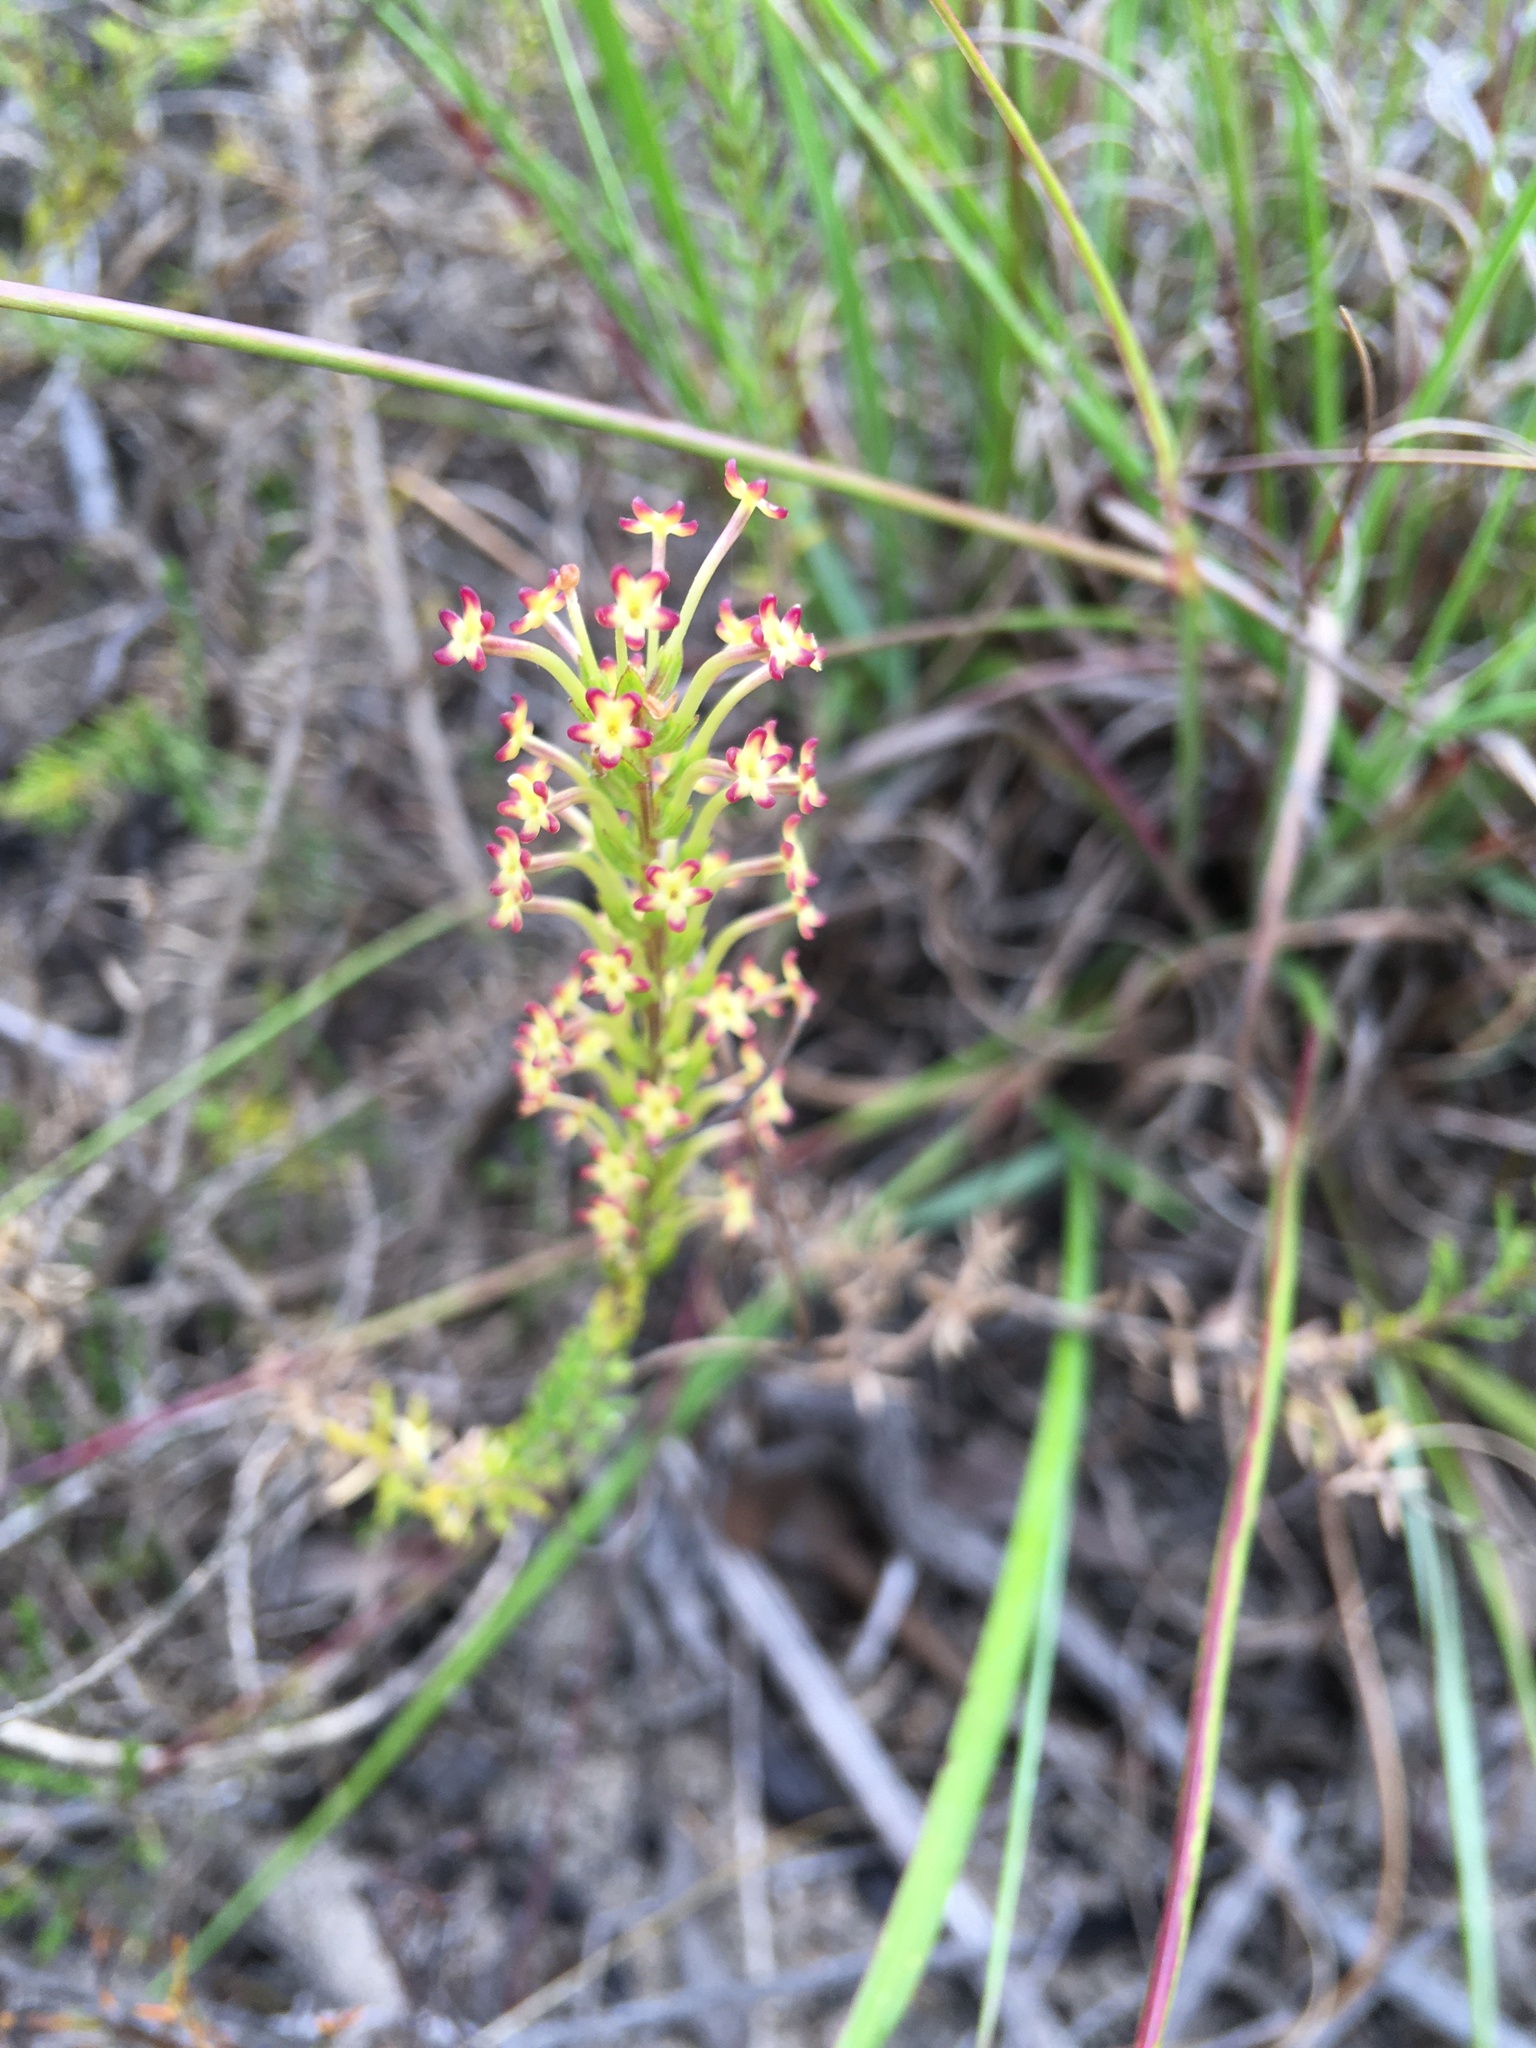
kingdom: Plantae
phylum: Tracheophyta
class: Magnoliopsida
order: Lamiales
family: Scrophulariaceae
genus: Microdon
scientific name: Microdon dubius
